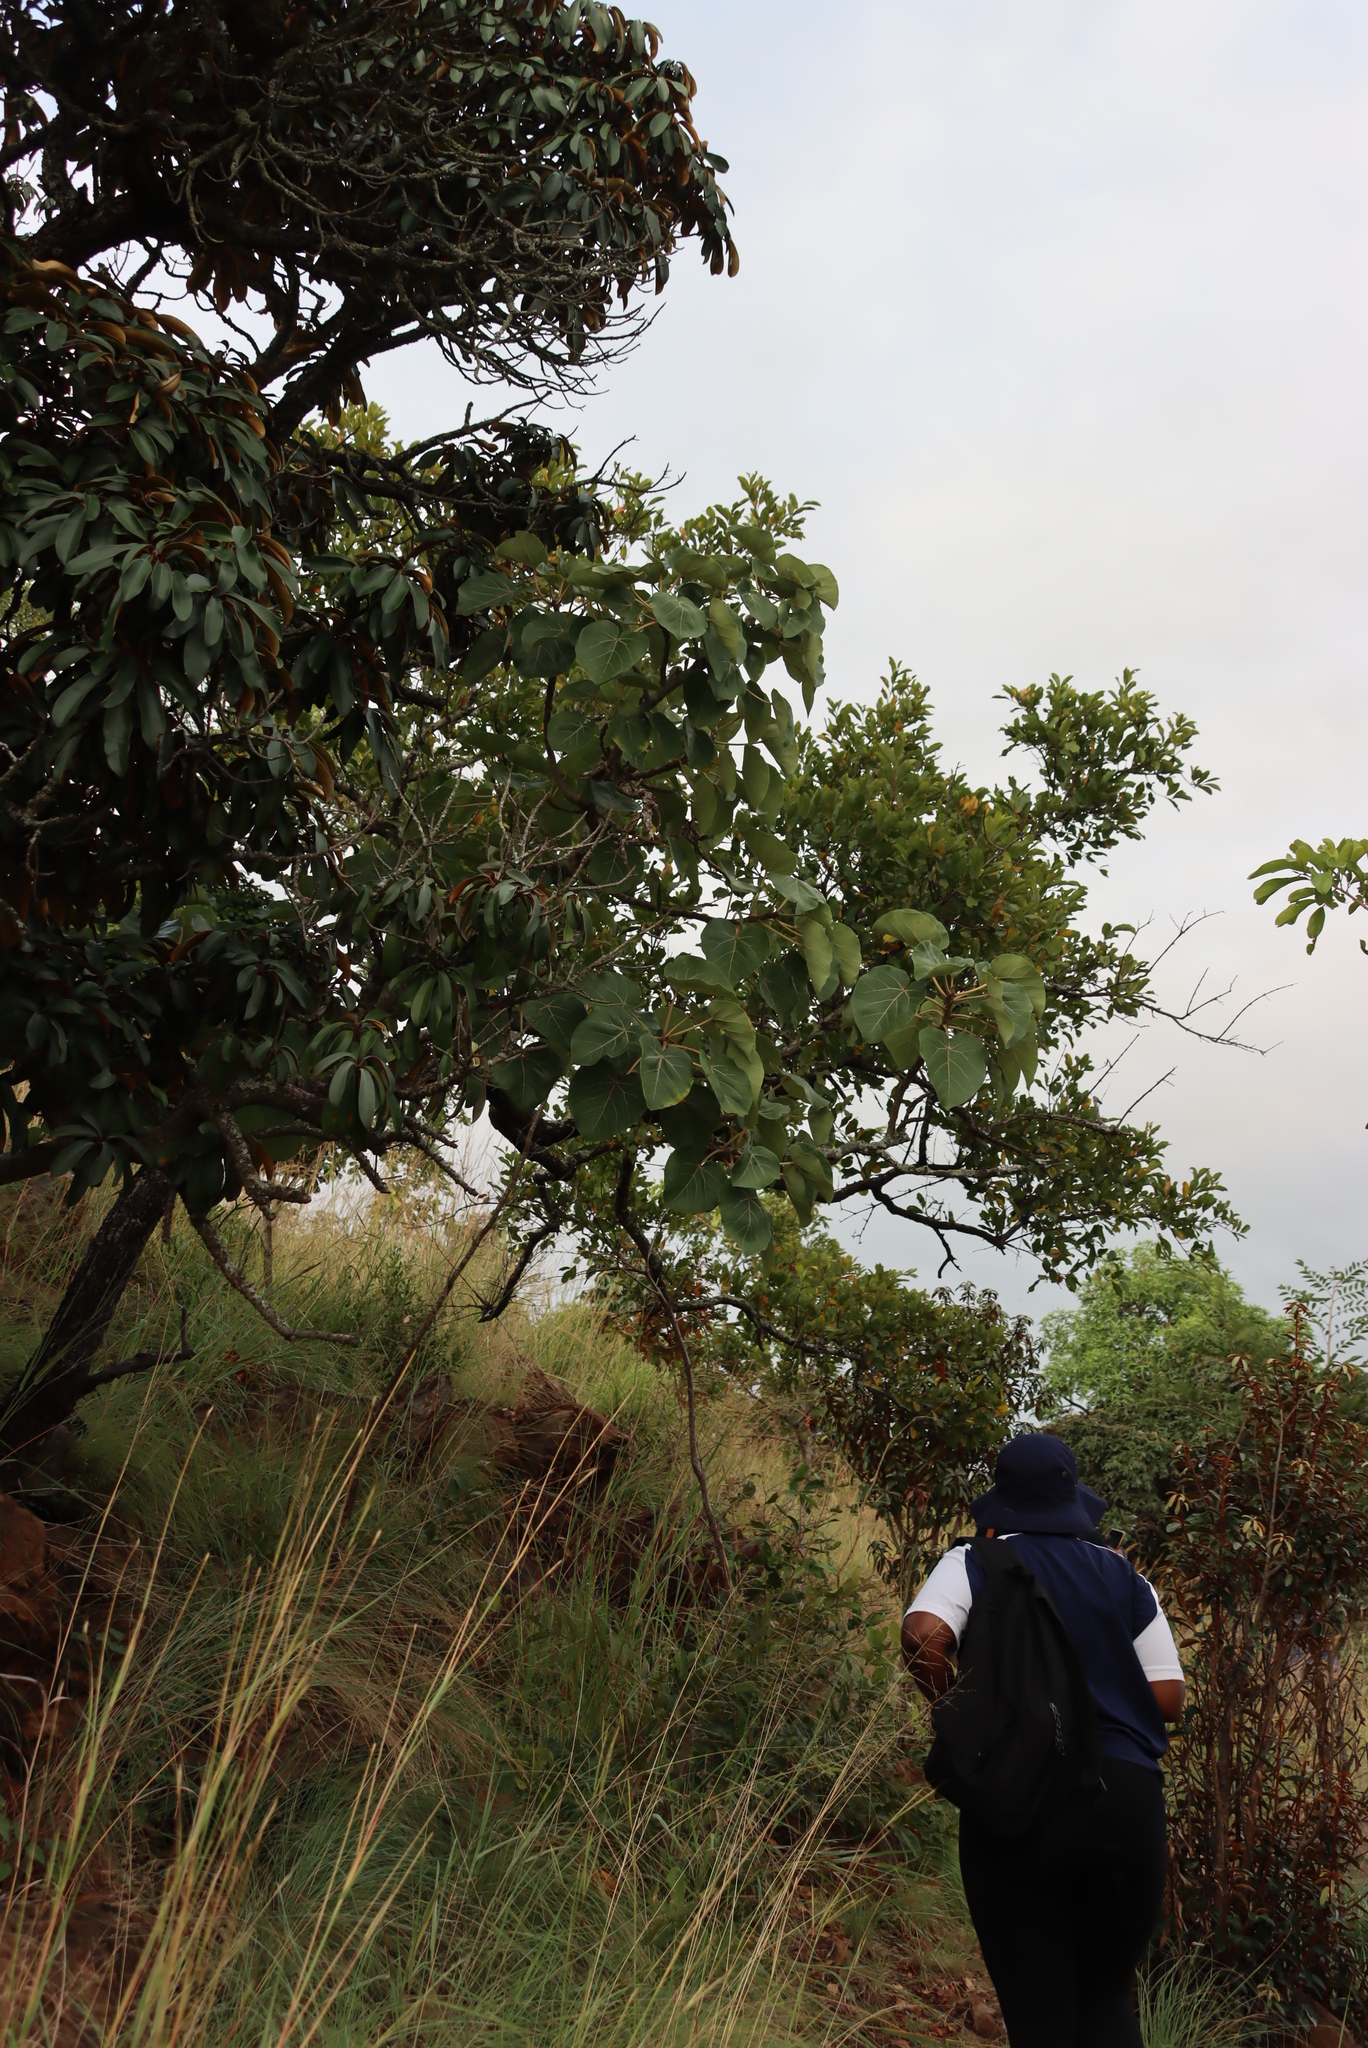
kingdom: Plantae
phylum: Tracheophyta
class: Magnoliopsida
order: Rosales
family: Moraceae
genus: Ficus
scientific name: Ficus abutilifolia
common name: Large-leaved rock fig
